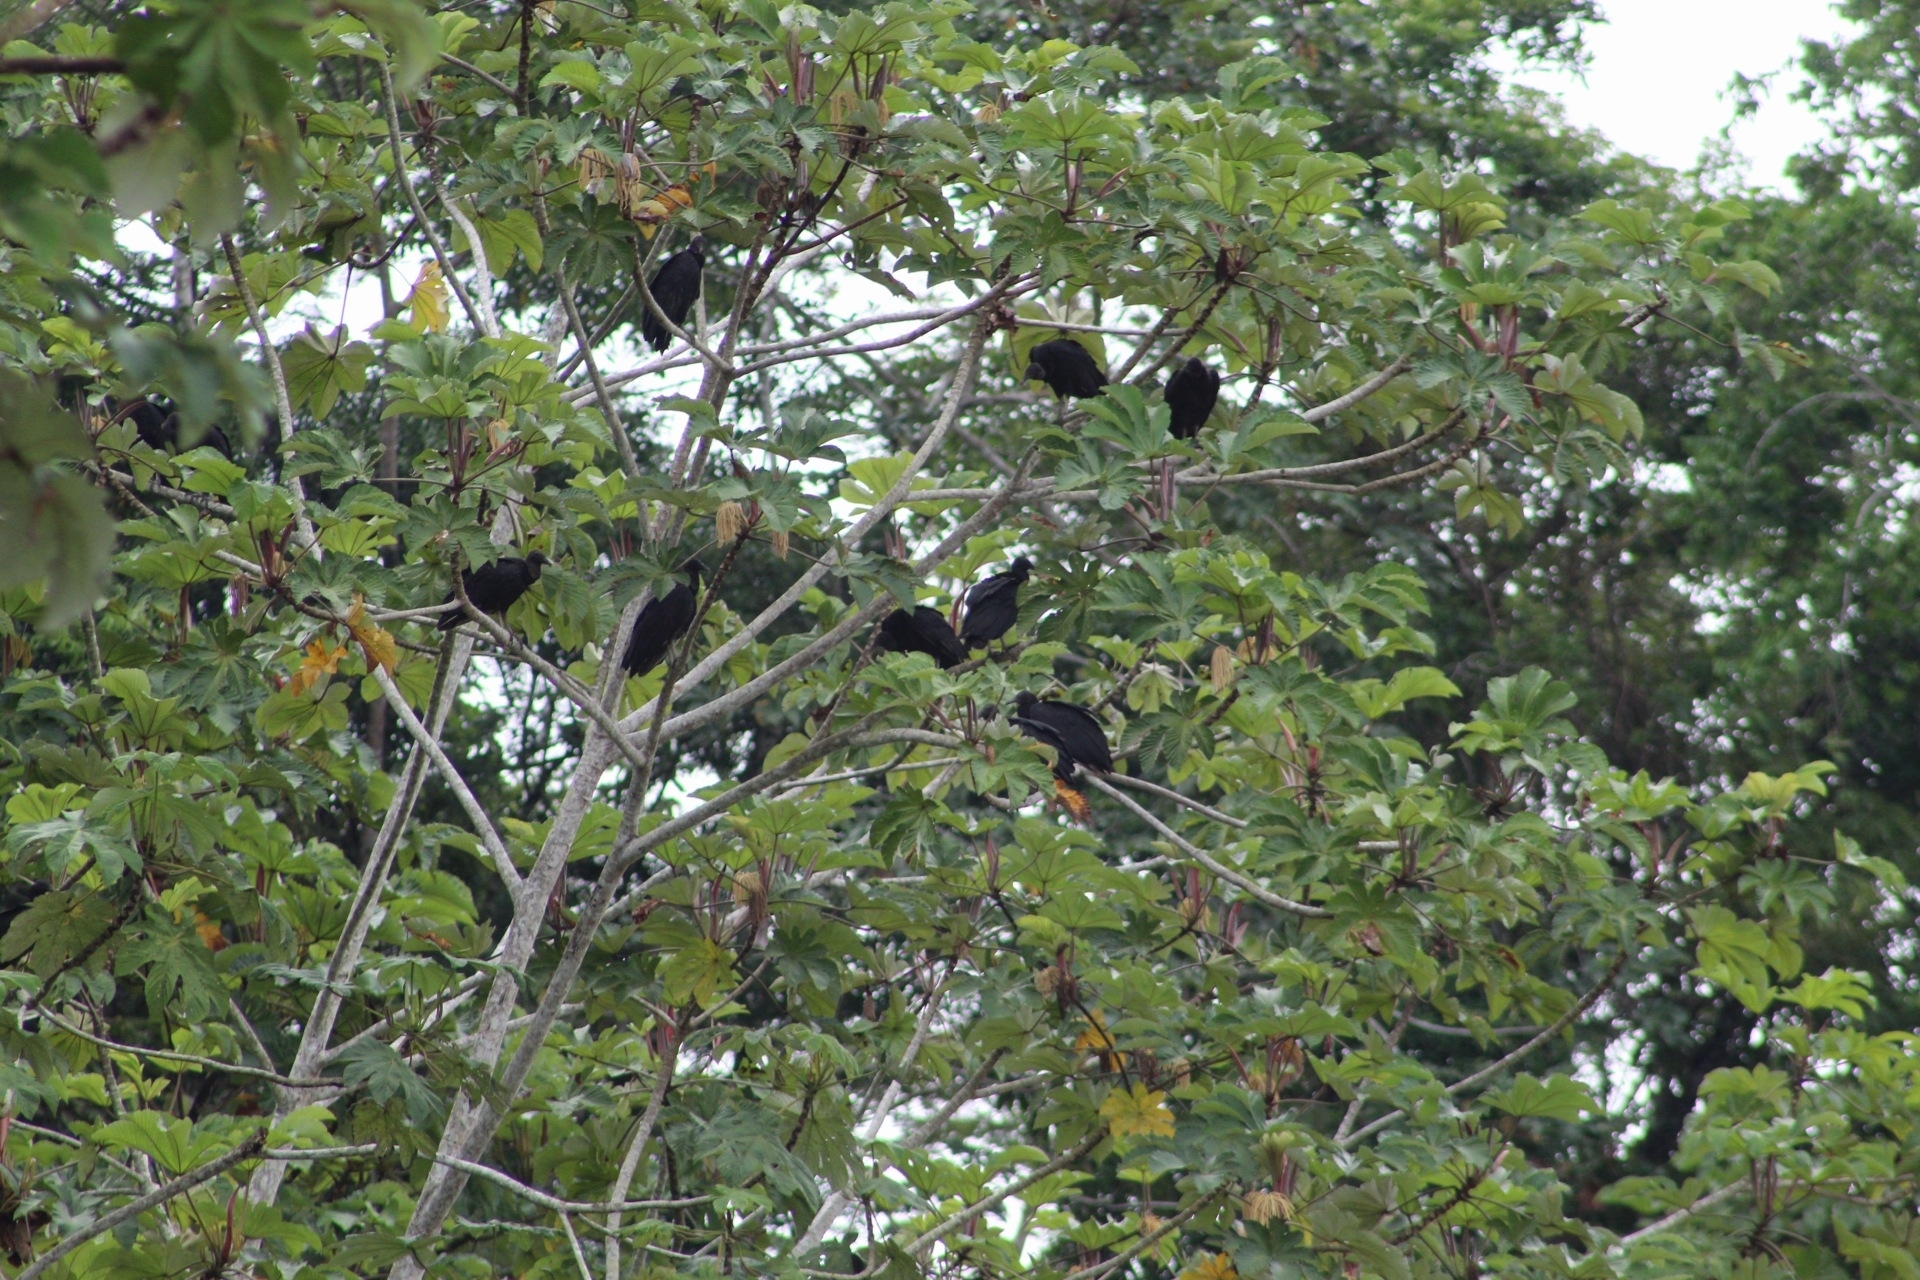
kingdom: Animalia
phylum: Chordata
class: Aves
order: Accipitriformes
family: Cathartidae
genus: Coragyps
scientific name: Coragyps atratus
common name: Black vulture
